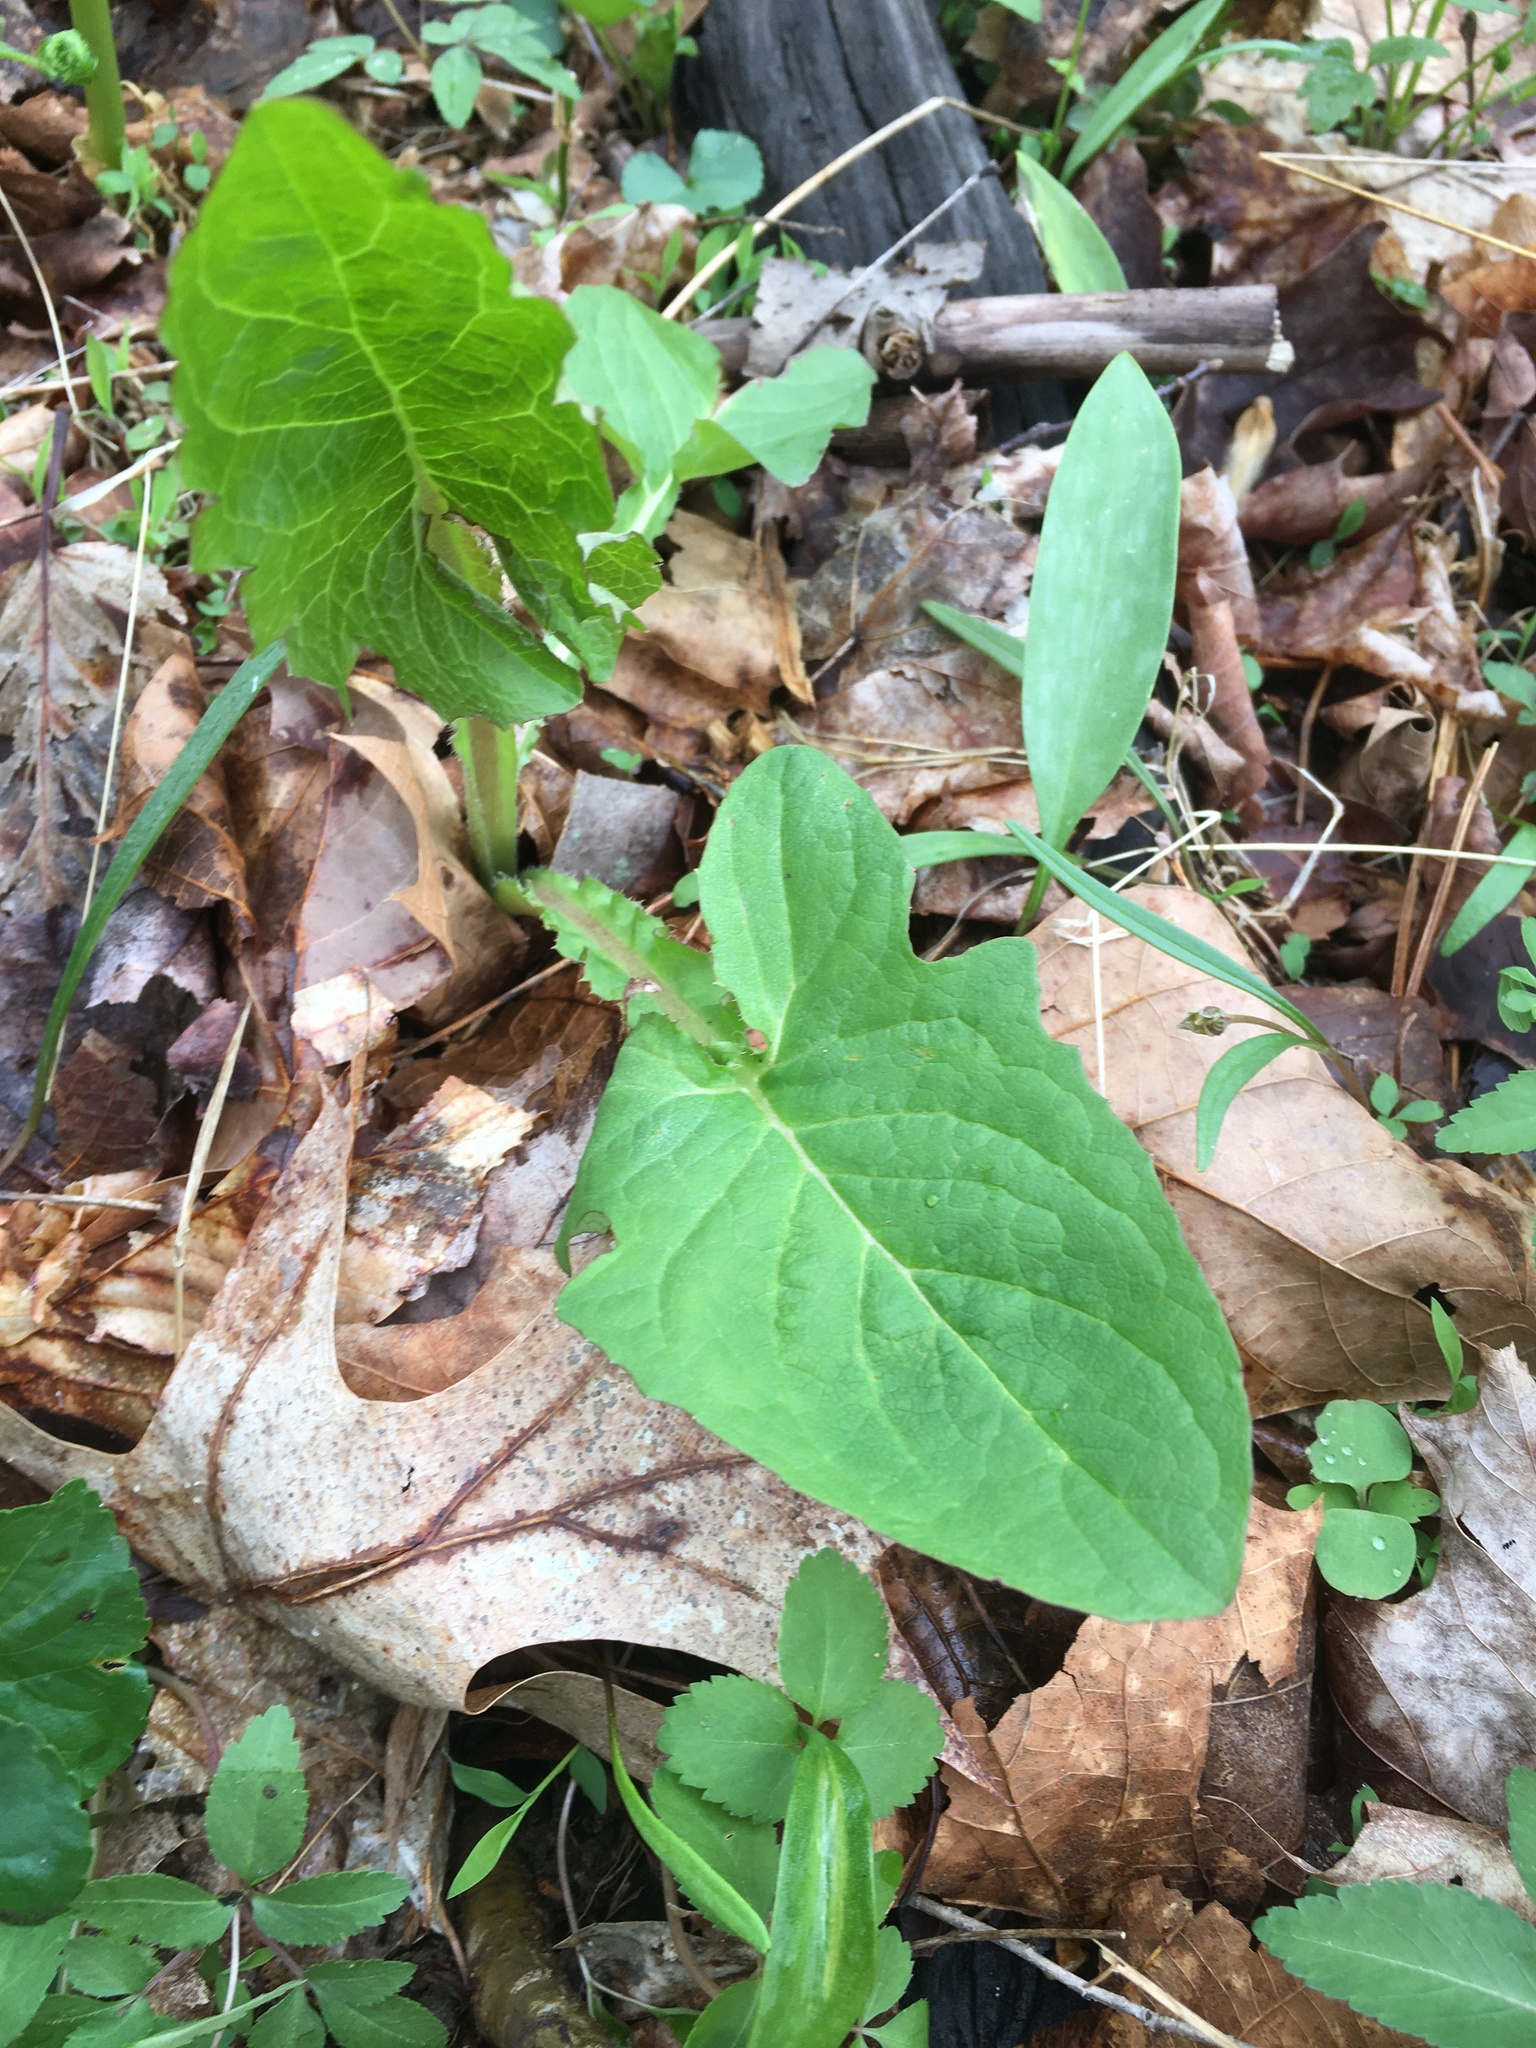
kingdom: Plantae
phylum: Tracheophyta
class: Magnoliopsida
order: Asterales
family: Asteraceae
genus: Nabalus
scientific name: Nabalus crepidineus
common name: Nodding rattlesnakeroot
